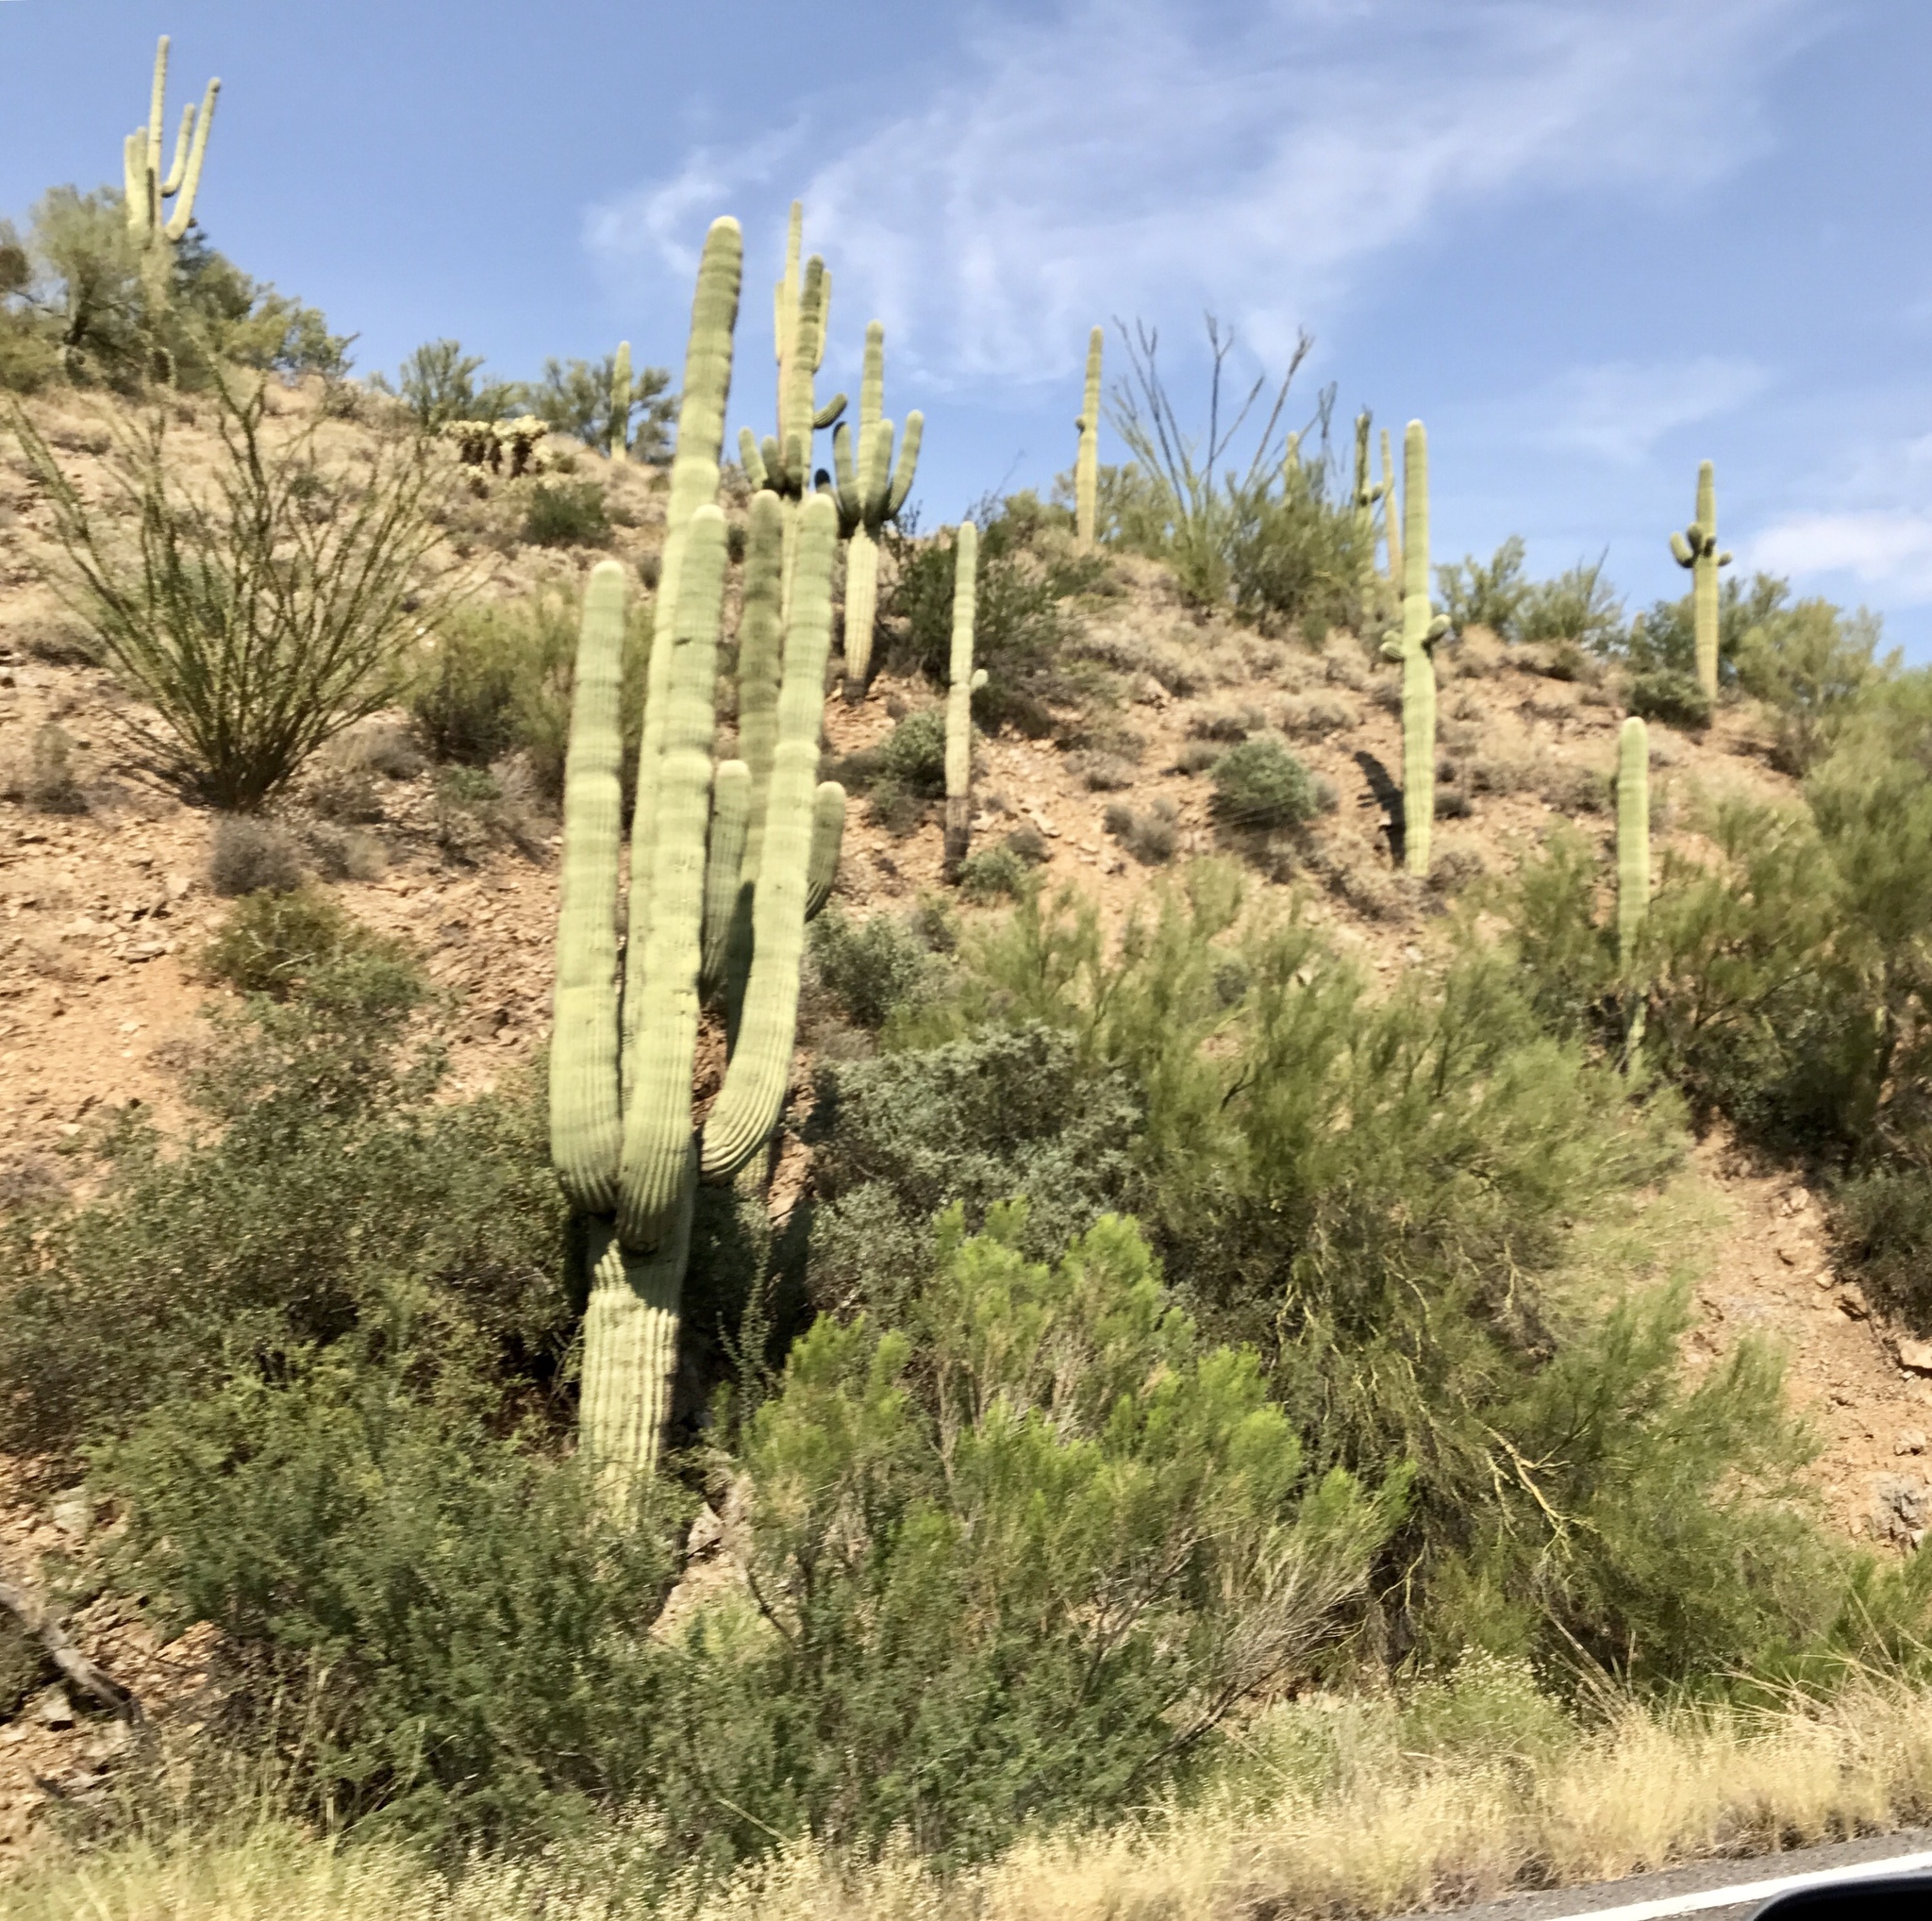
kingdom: Plantae
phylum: Tracheophyta
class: Magnoliopsida
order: Caryophyllales
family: Cactaceae
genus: Carnegiea
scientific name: Carnegiea gigantea
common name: Saguaro
